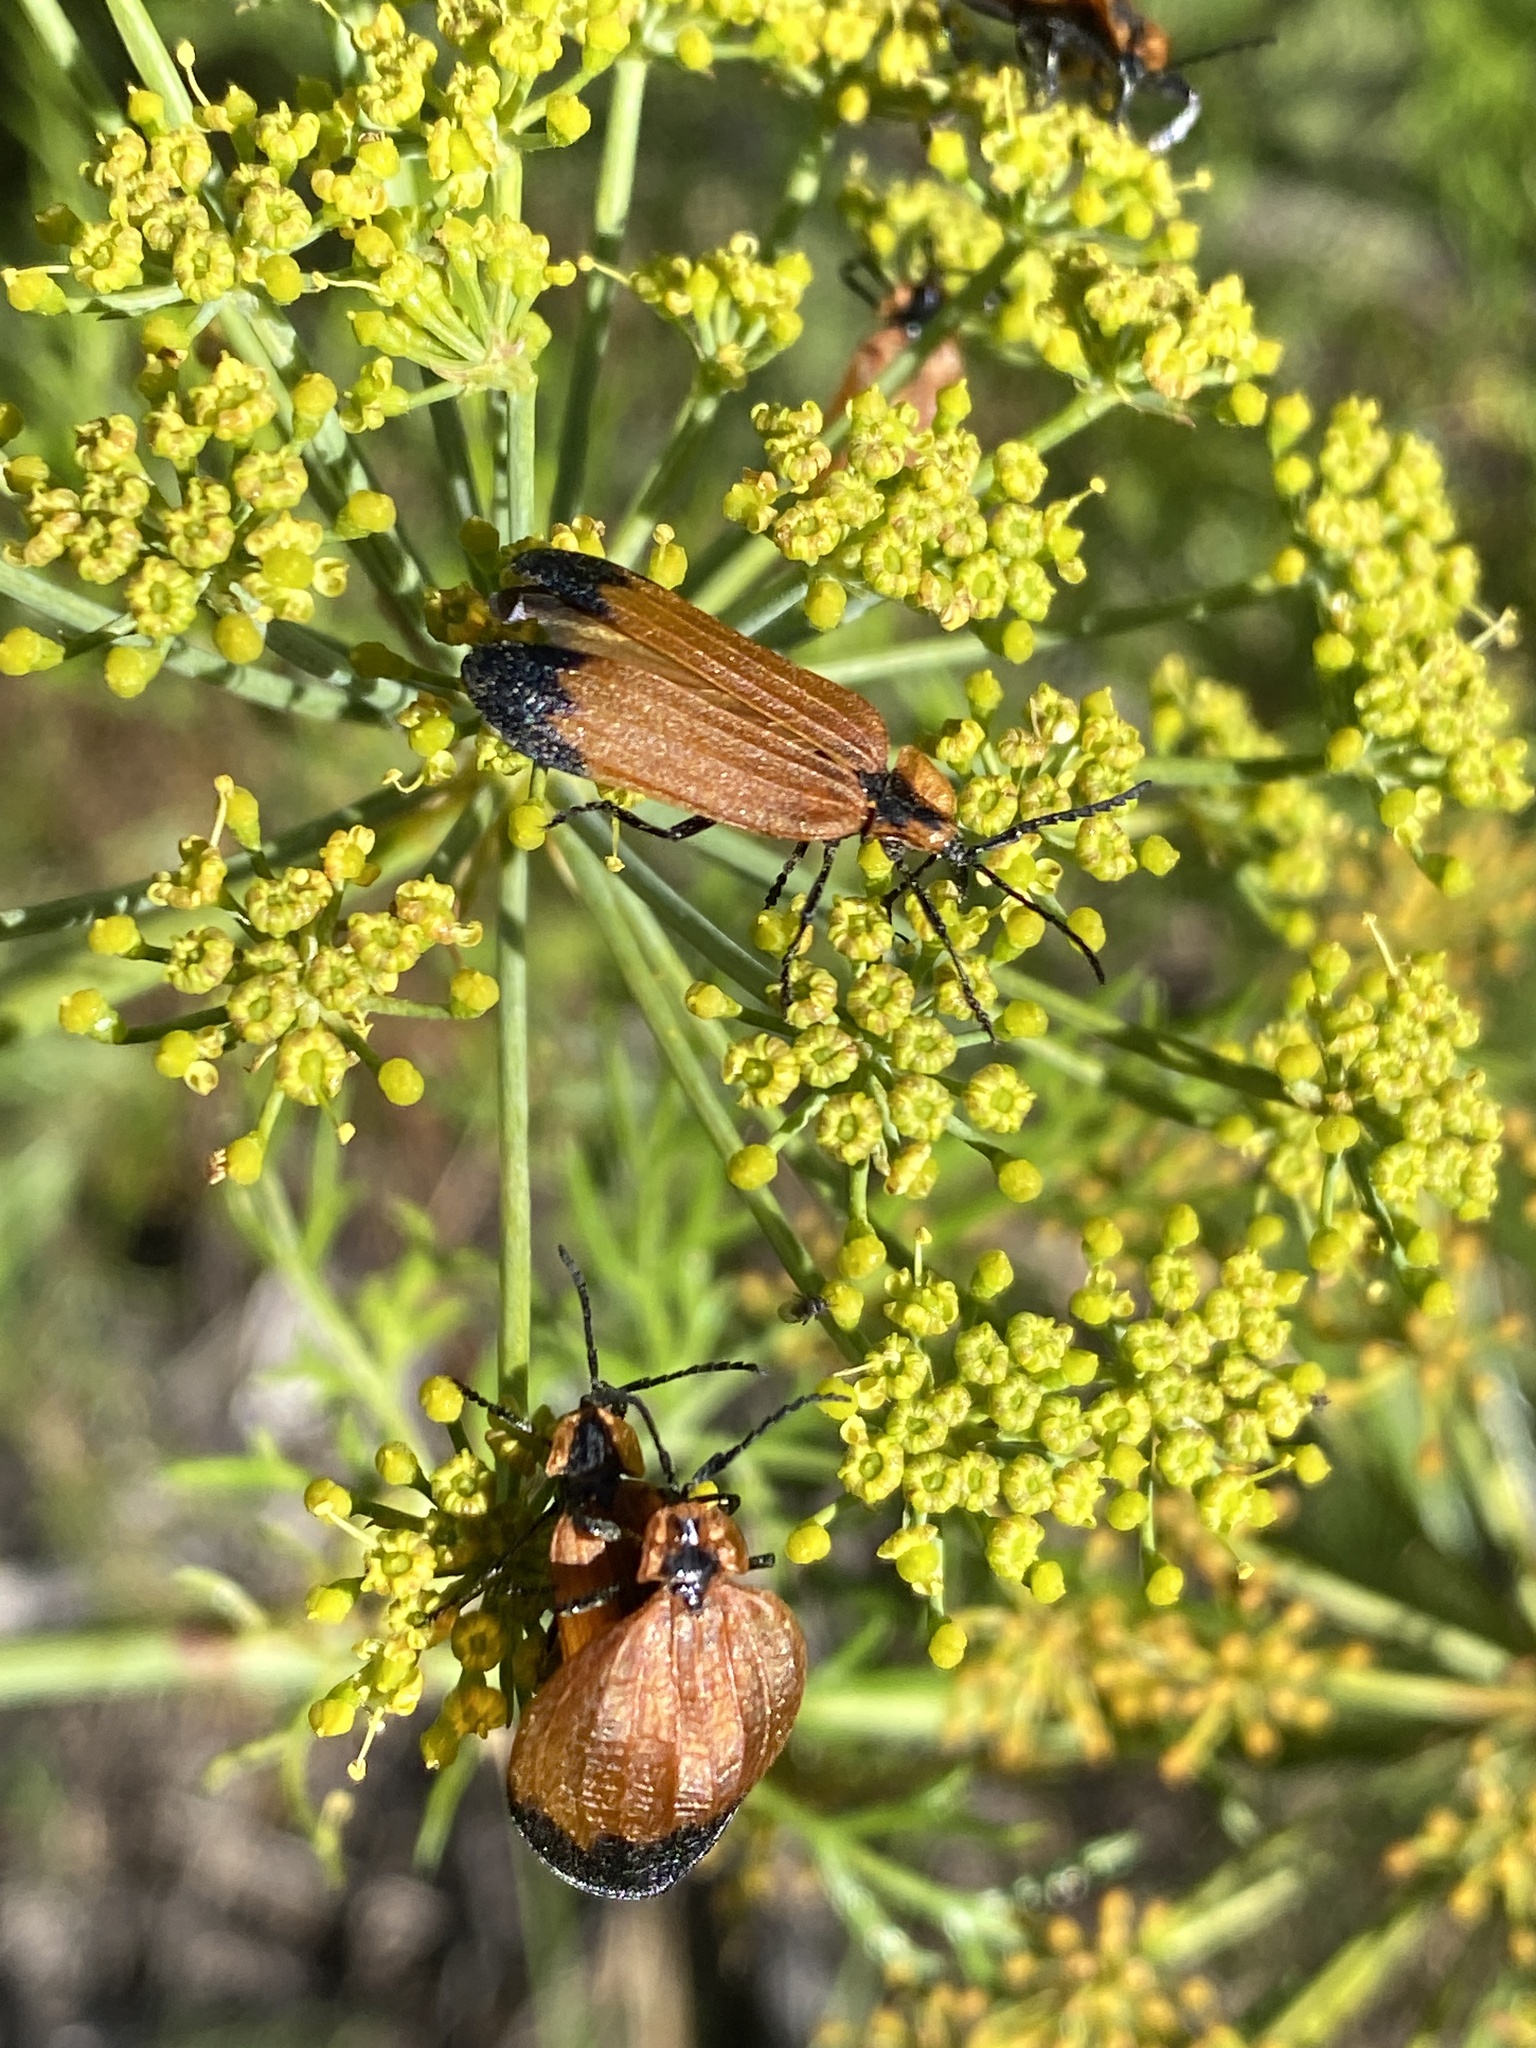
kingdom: Animalia
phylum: Arthropoda
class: Insecta
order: Coleoptera
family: Lycidae
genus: Lycus
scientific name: Lycus
